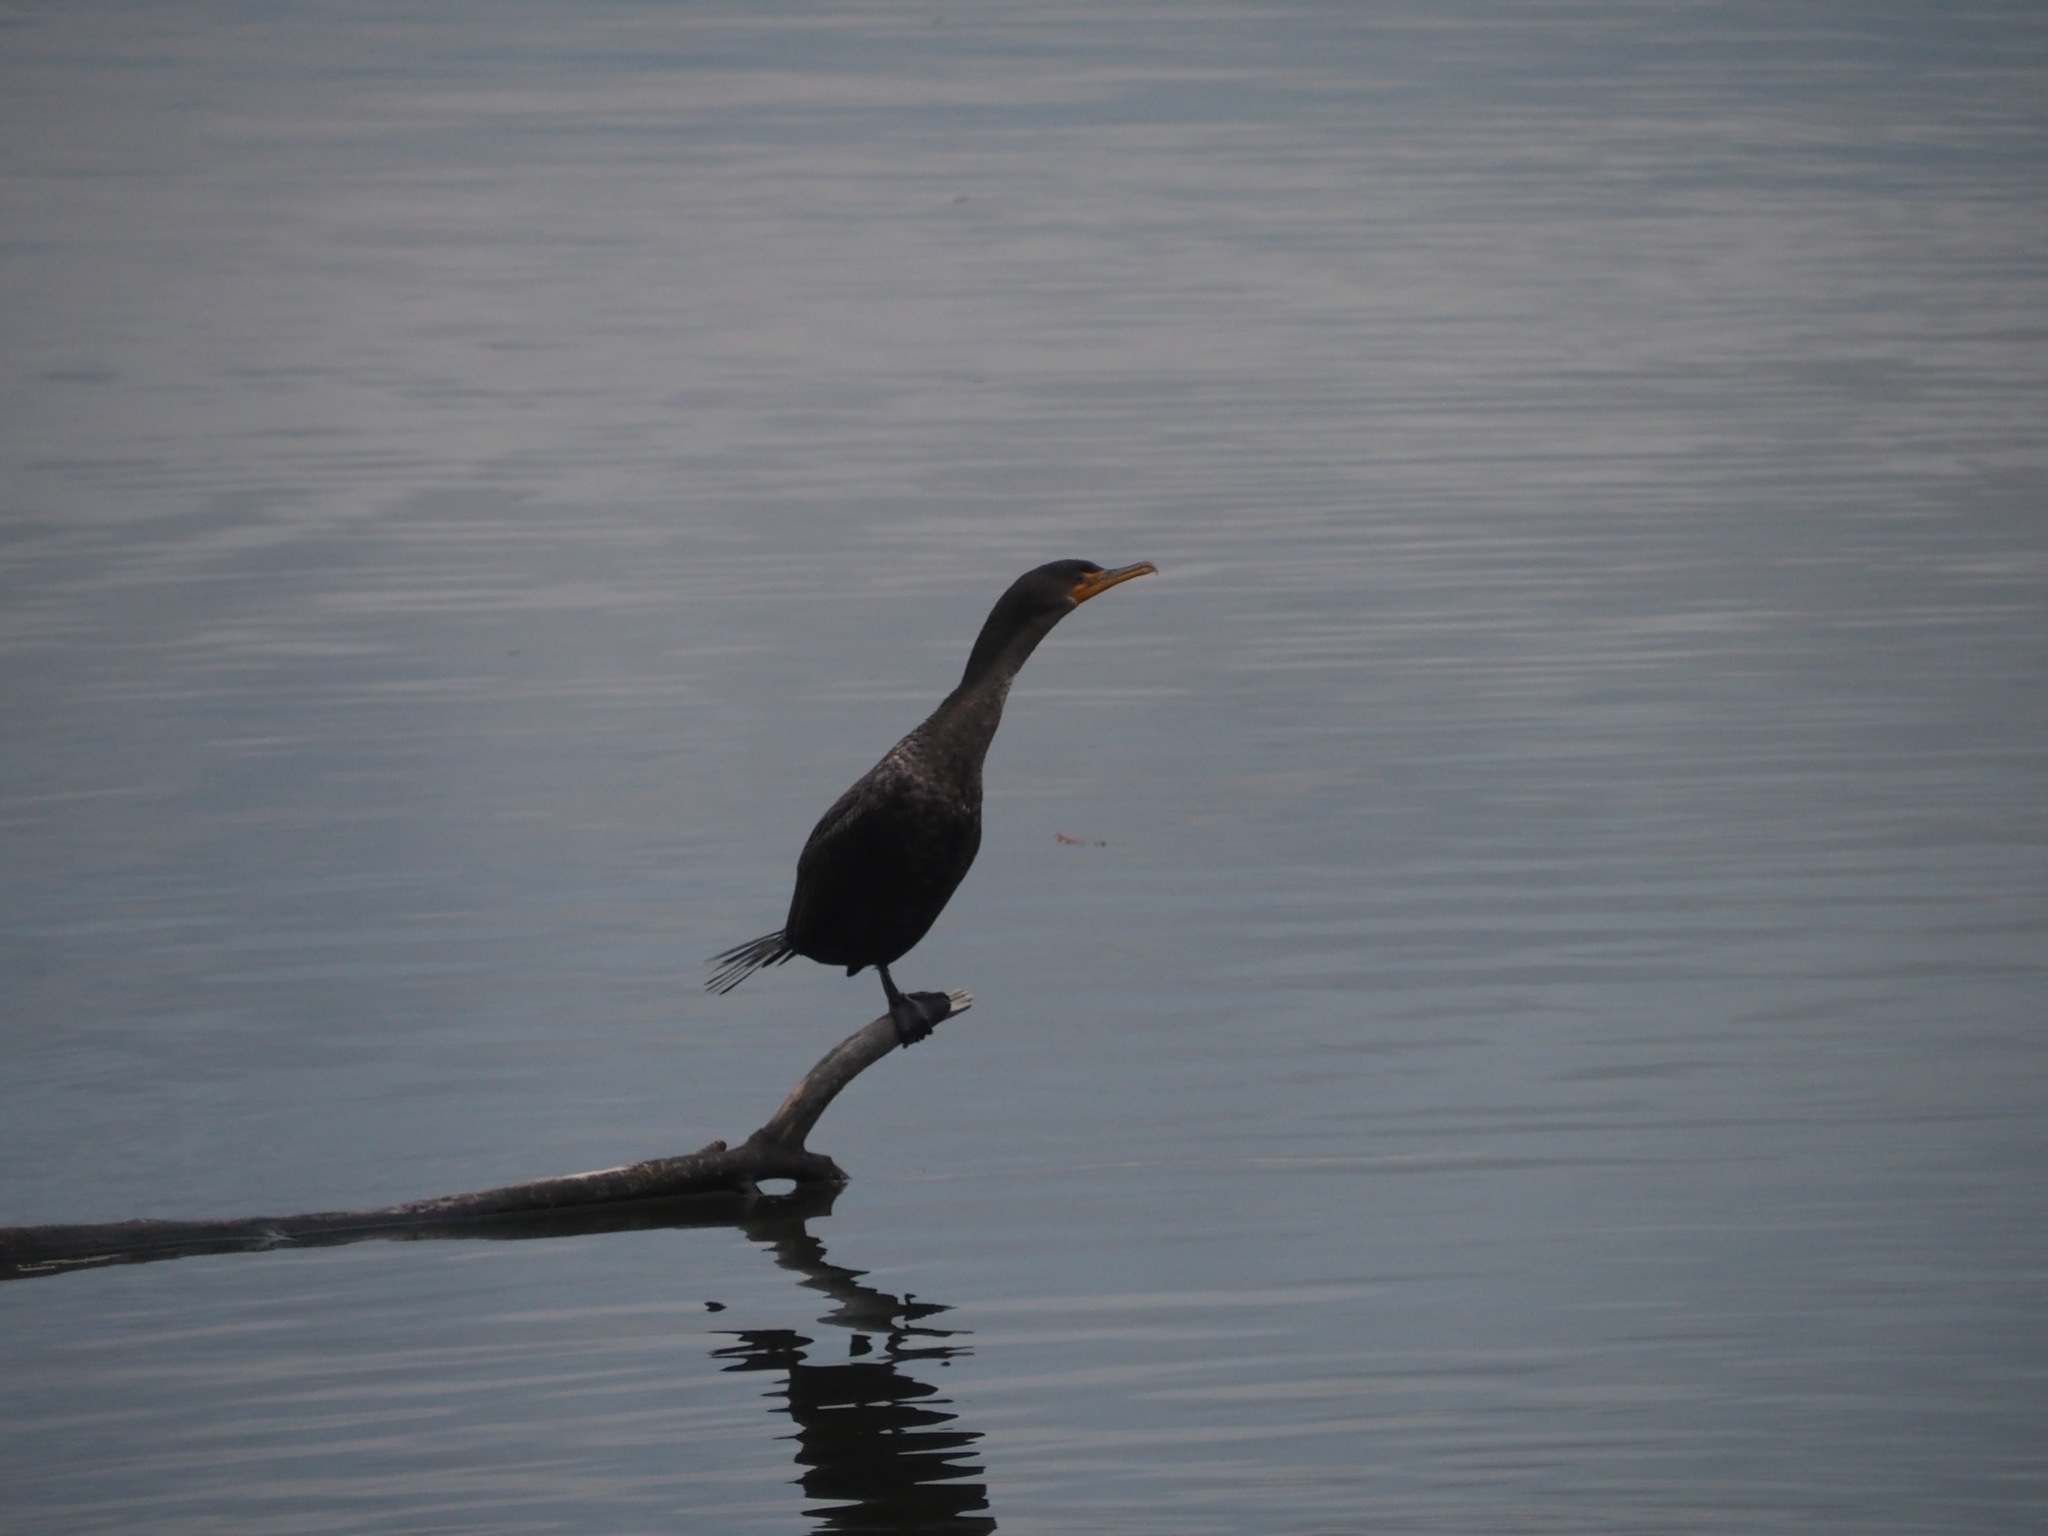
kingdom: Animalia
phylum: Chordata
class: Aves
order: Suliformes
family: Phalacrocoracidae
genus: Phalacrocorax
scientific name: Phalacrocorax auritus
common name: Double-crested cormorant
